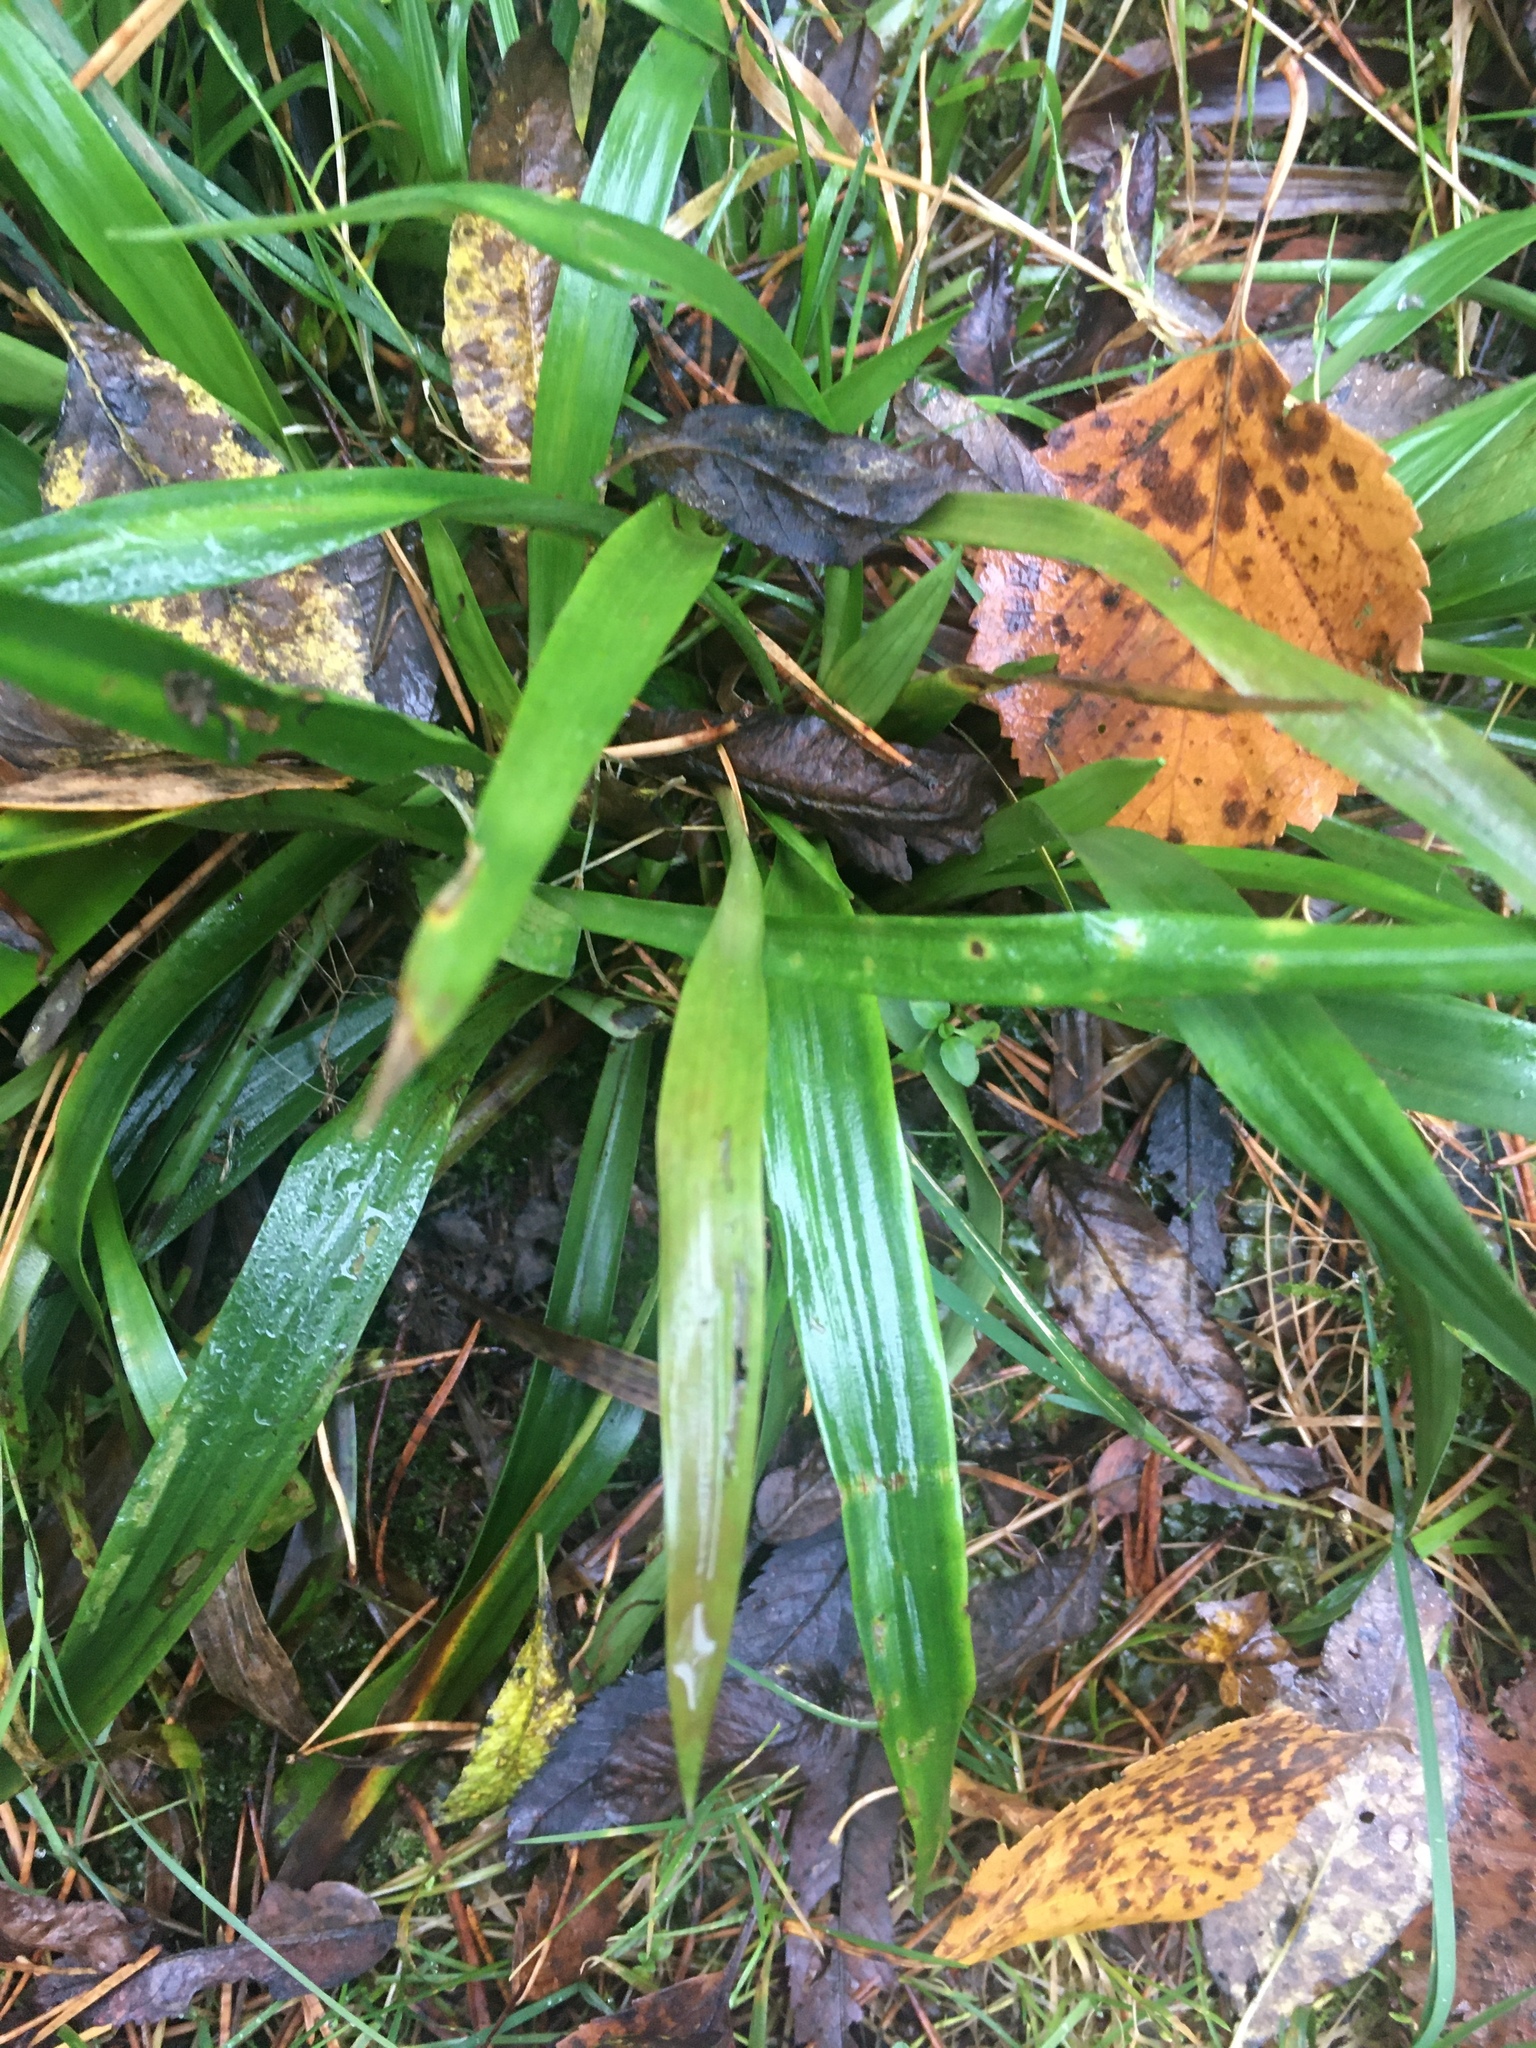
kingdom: Plantae
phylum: Tracheophyta
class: Liliopsida
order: Poales
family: Juncaceae
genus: Luzula
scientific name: Luzula pilosa
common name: Hairy wood-rush
